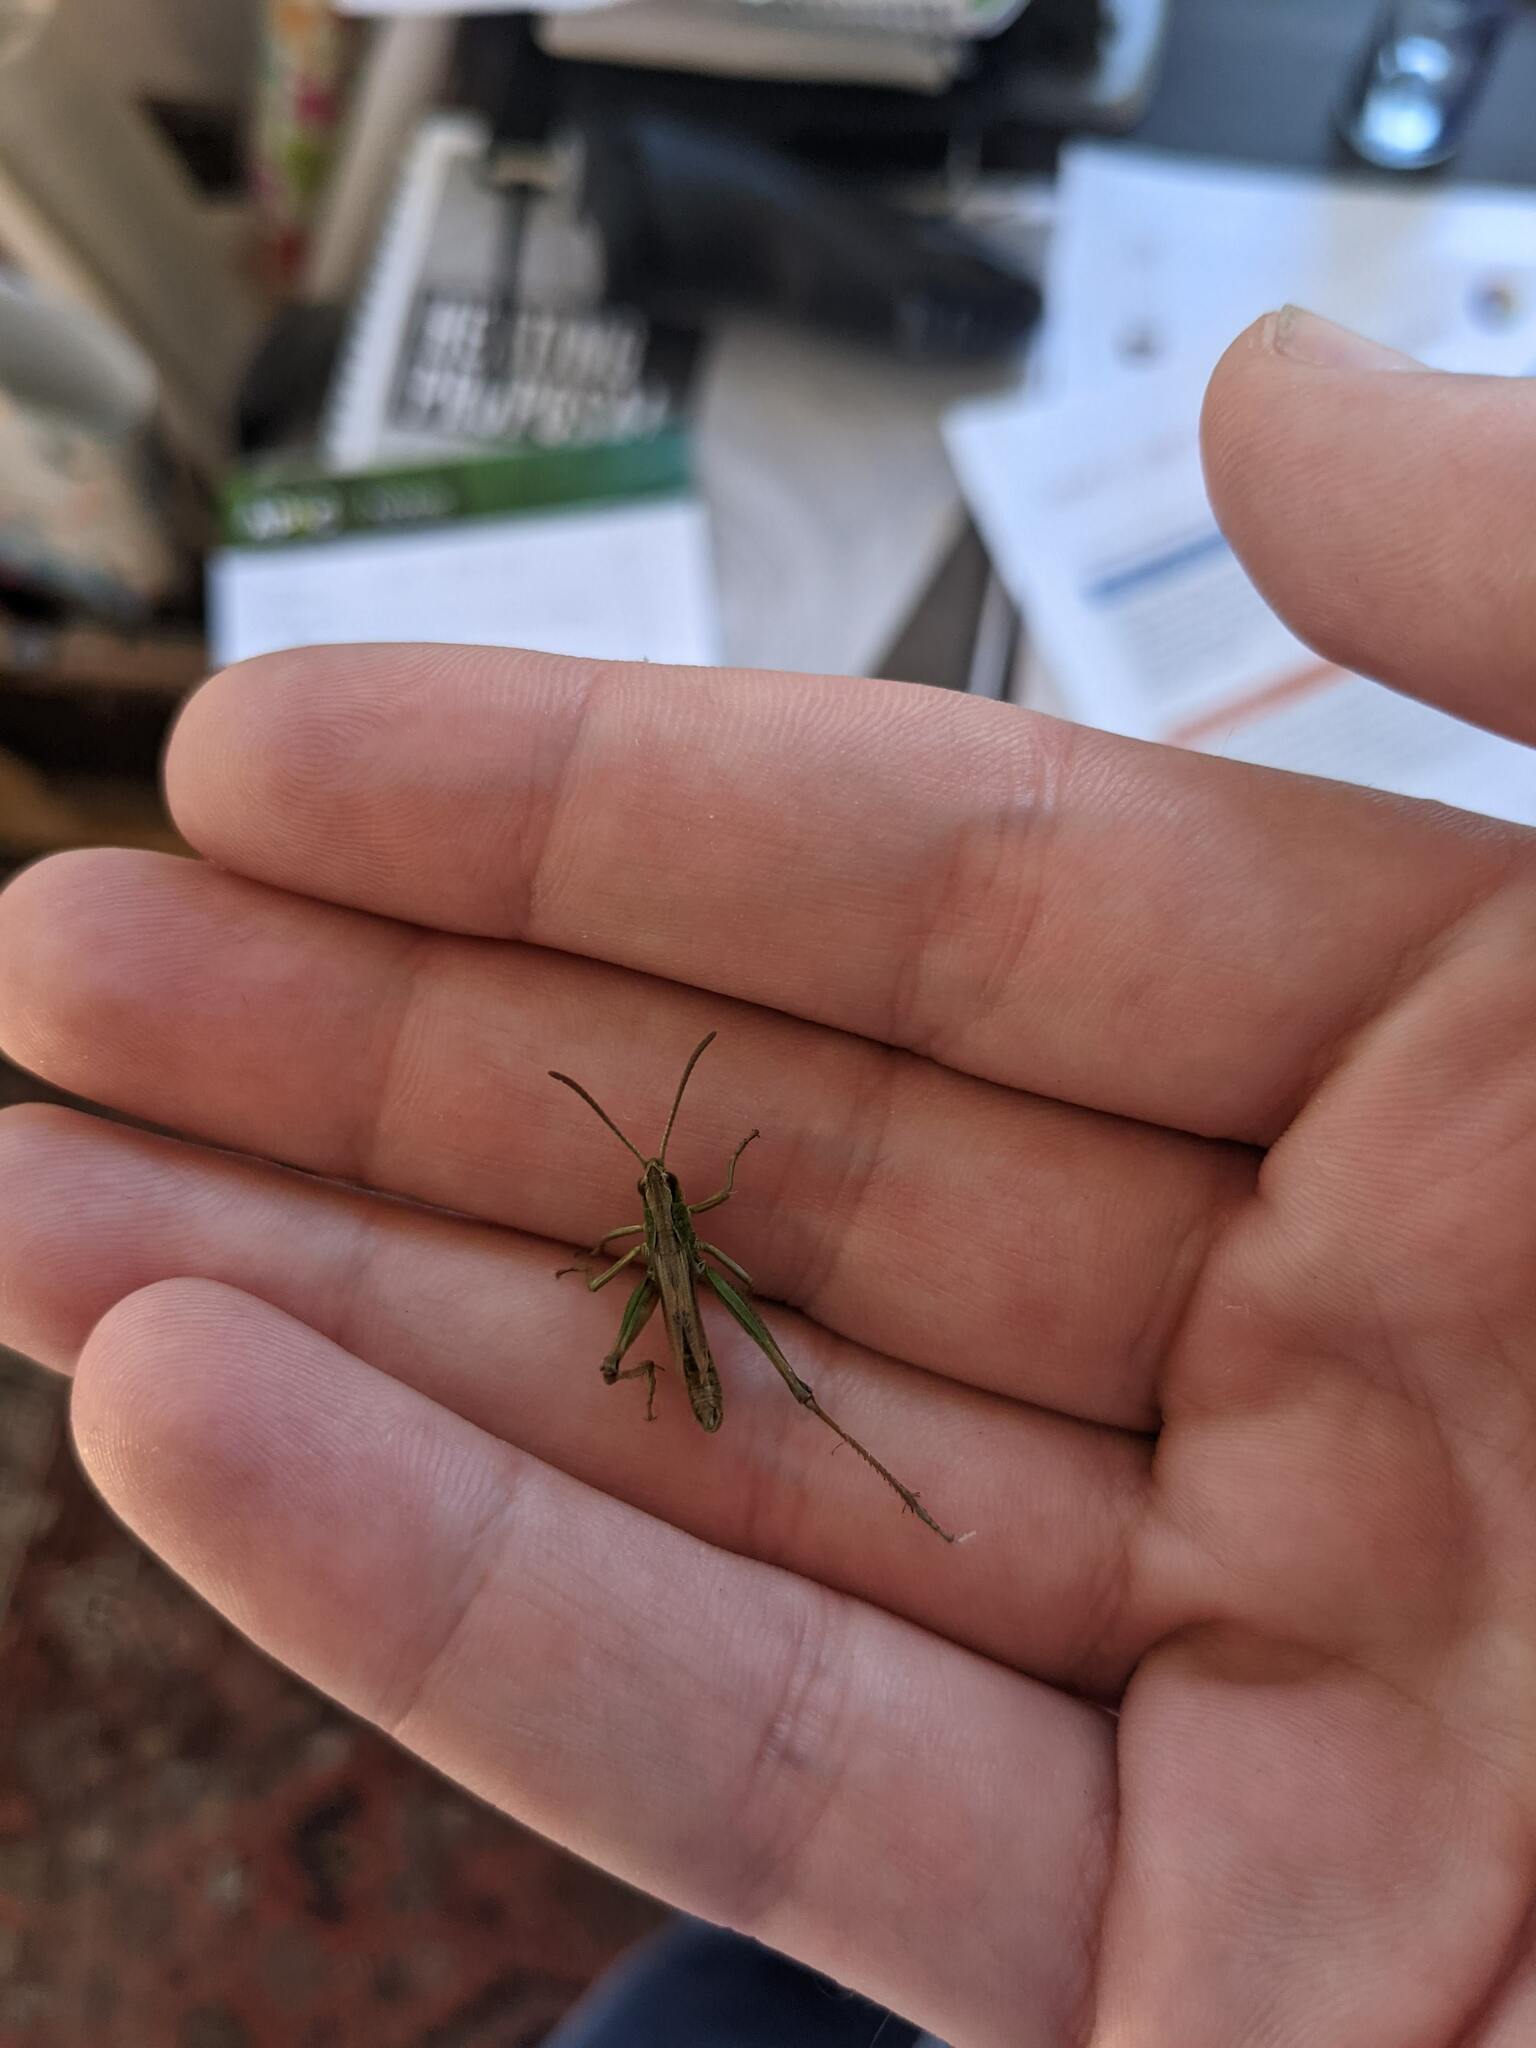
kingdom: Animalia
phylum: Arthropoda
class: Insecta
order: Orthoptera
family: Acrididae
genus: Pseudochorthippus
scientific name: Pseudochorthippus parallelus
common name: Meadow grasshopper
